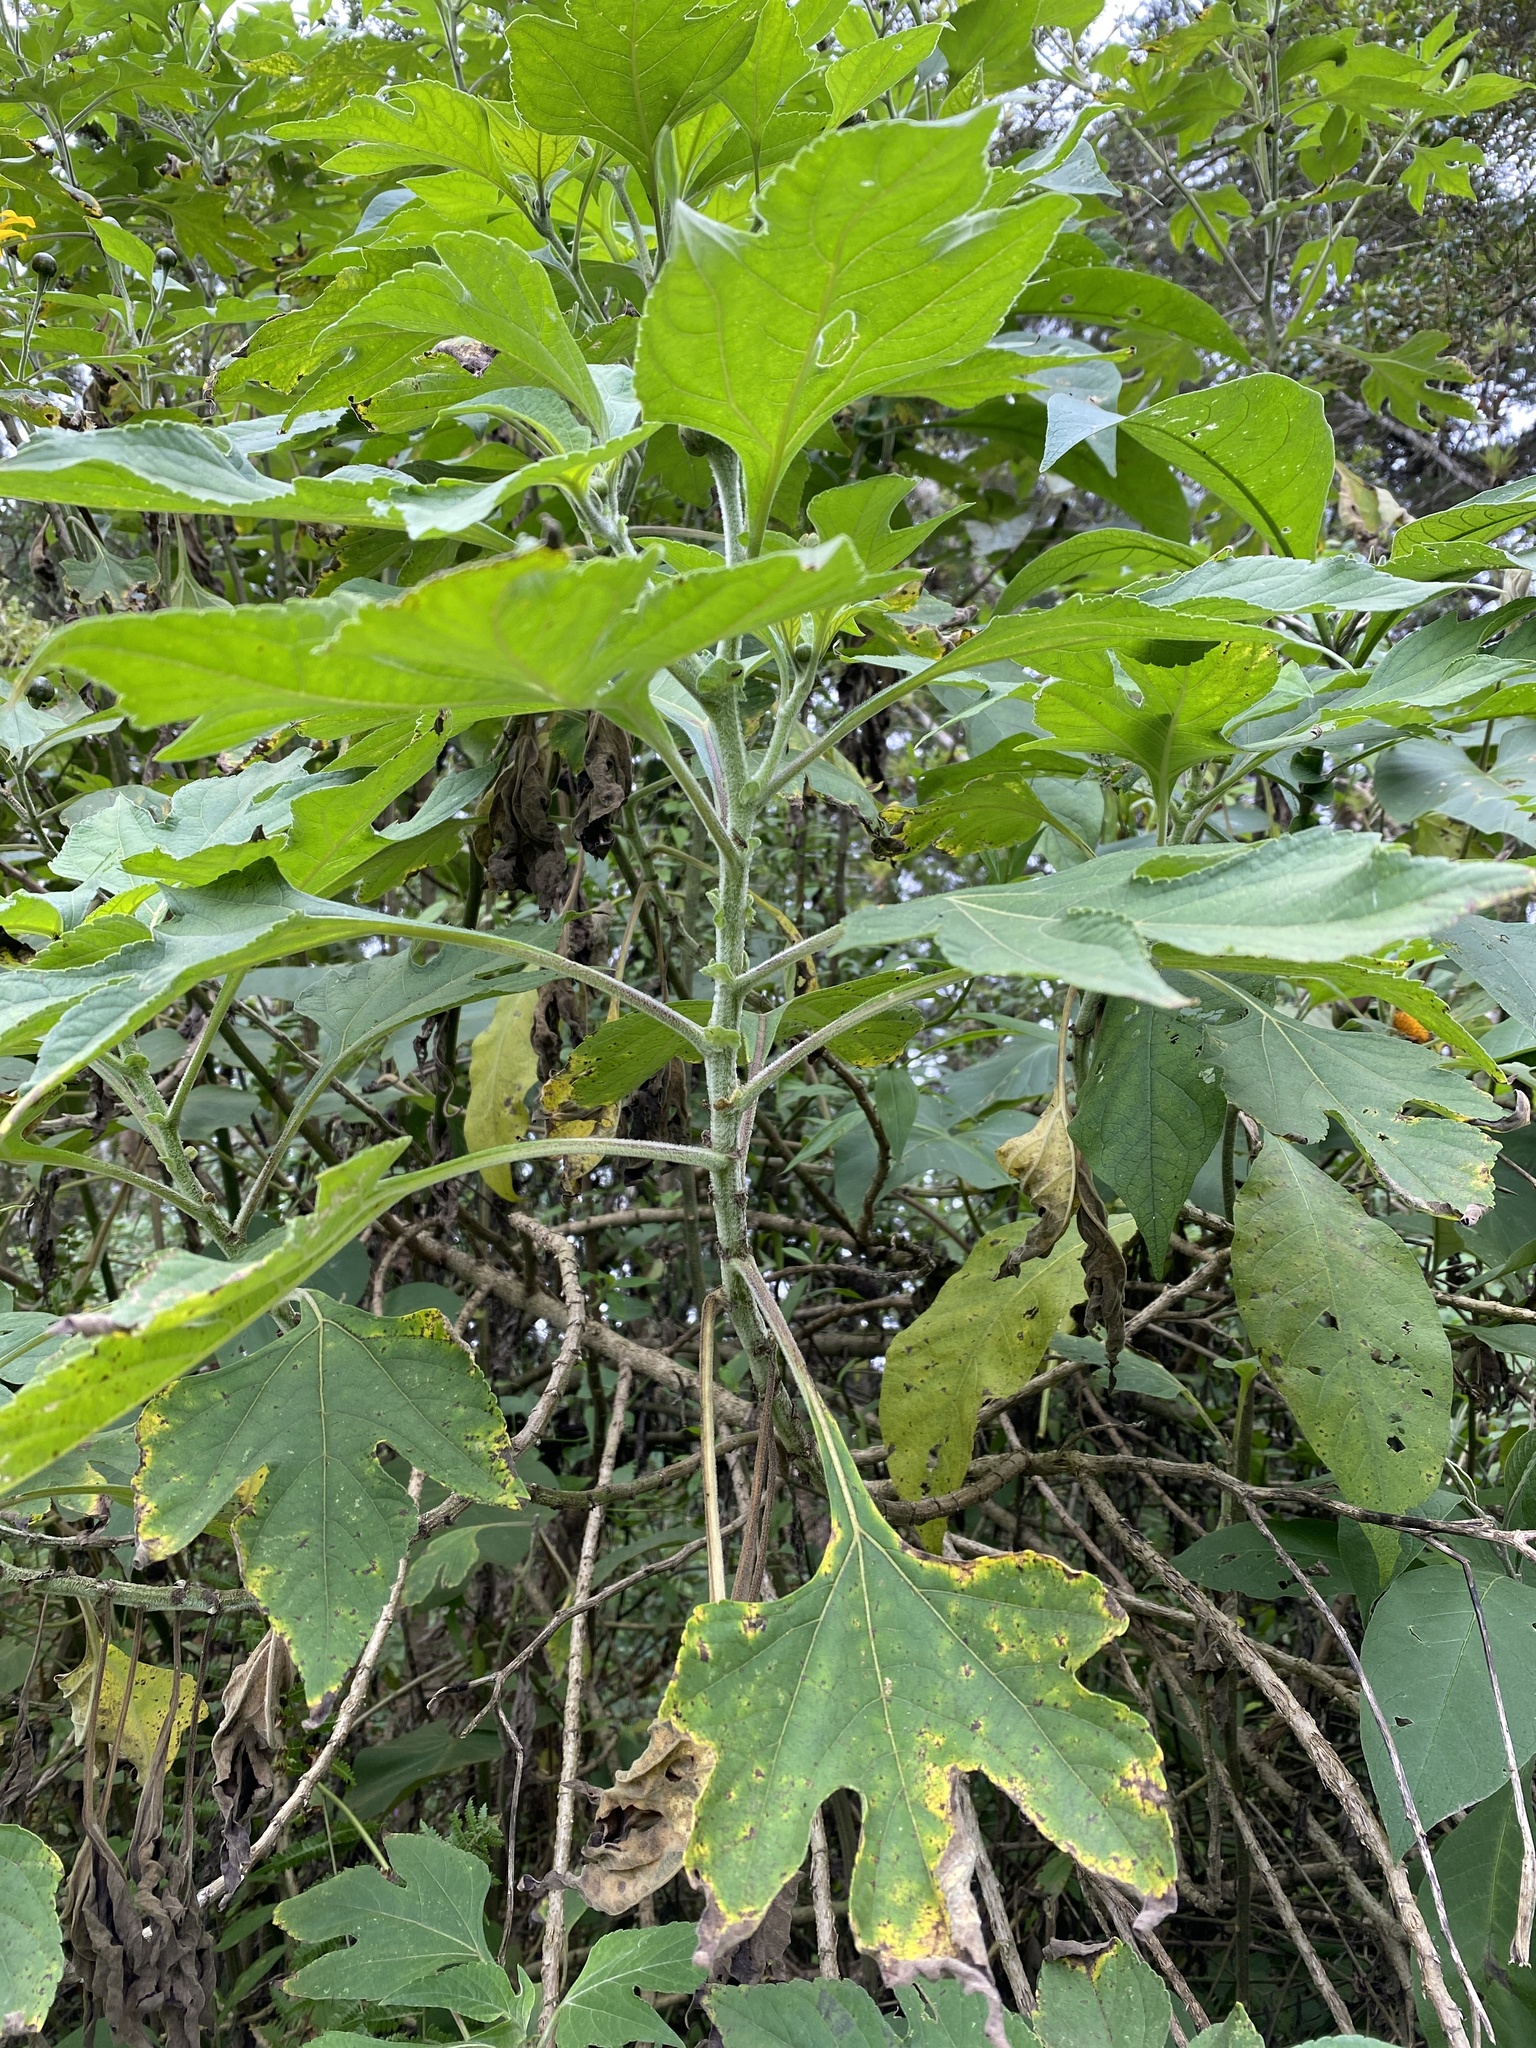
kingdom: Plantae
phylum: Tracheophyta
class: Magnoliopsida
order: Asterales
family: Asteraceae
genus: Tithonia
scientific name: Tithonia diversifolia
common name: Tree marigold
